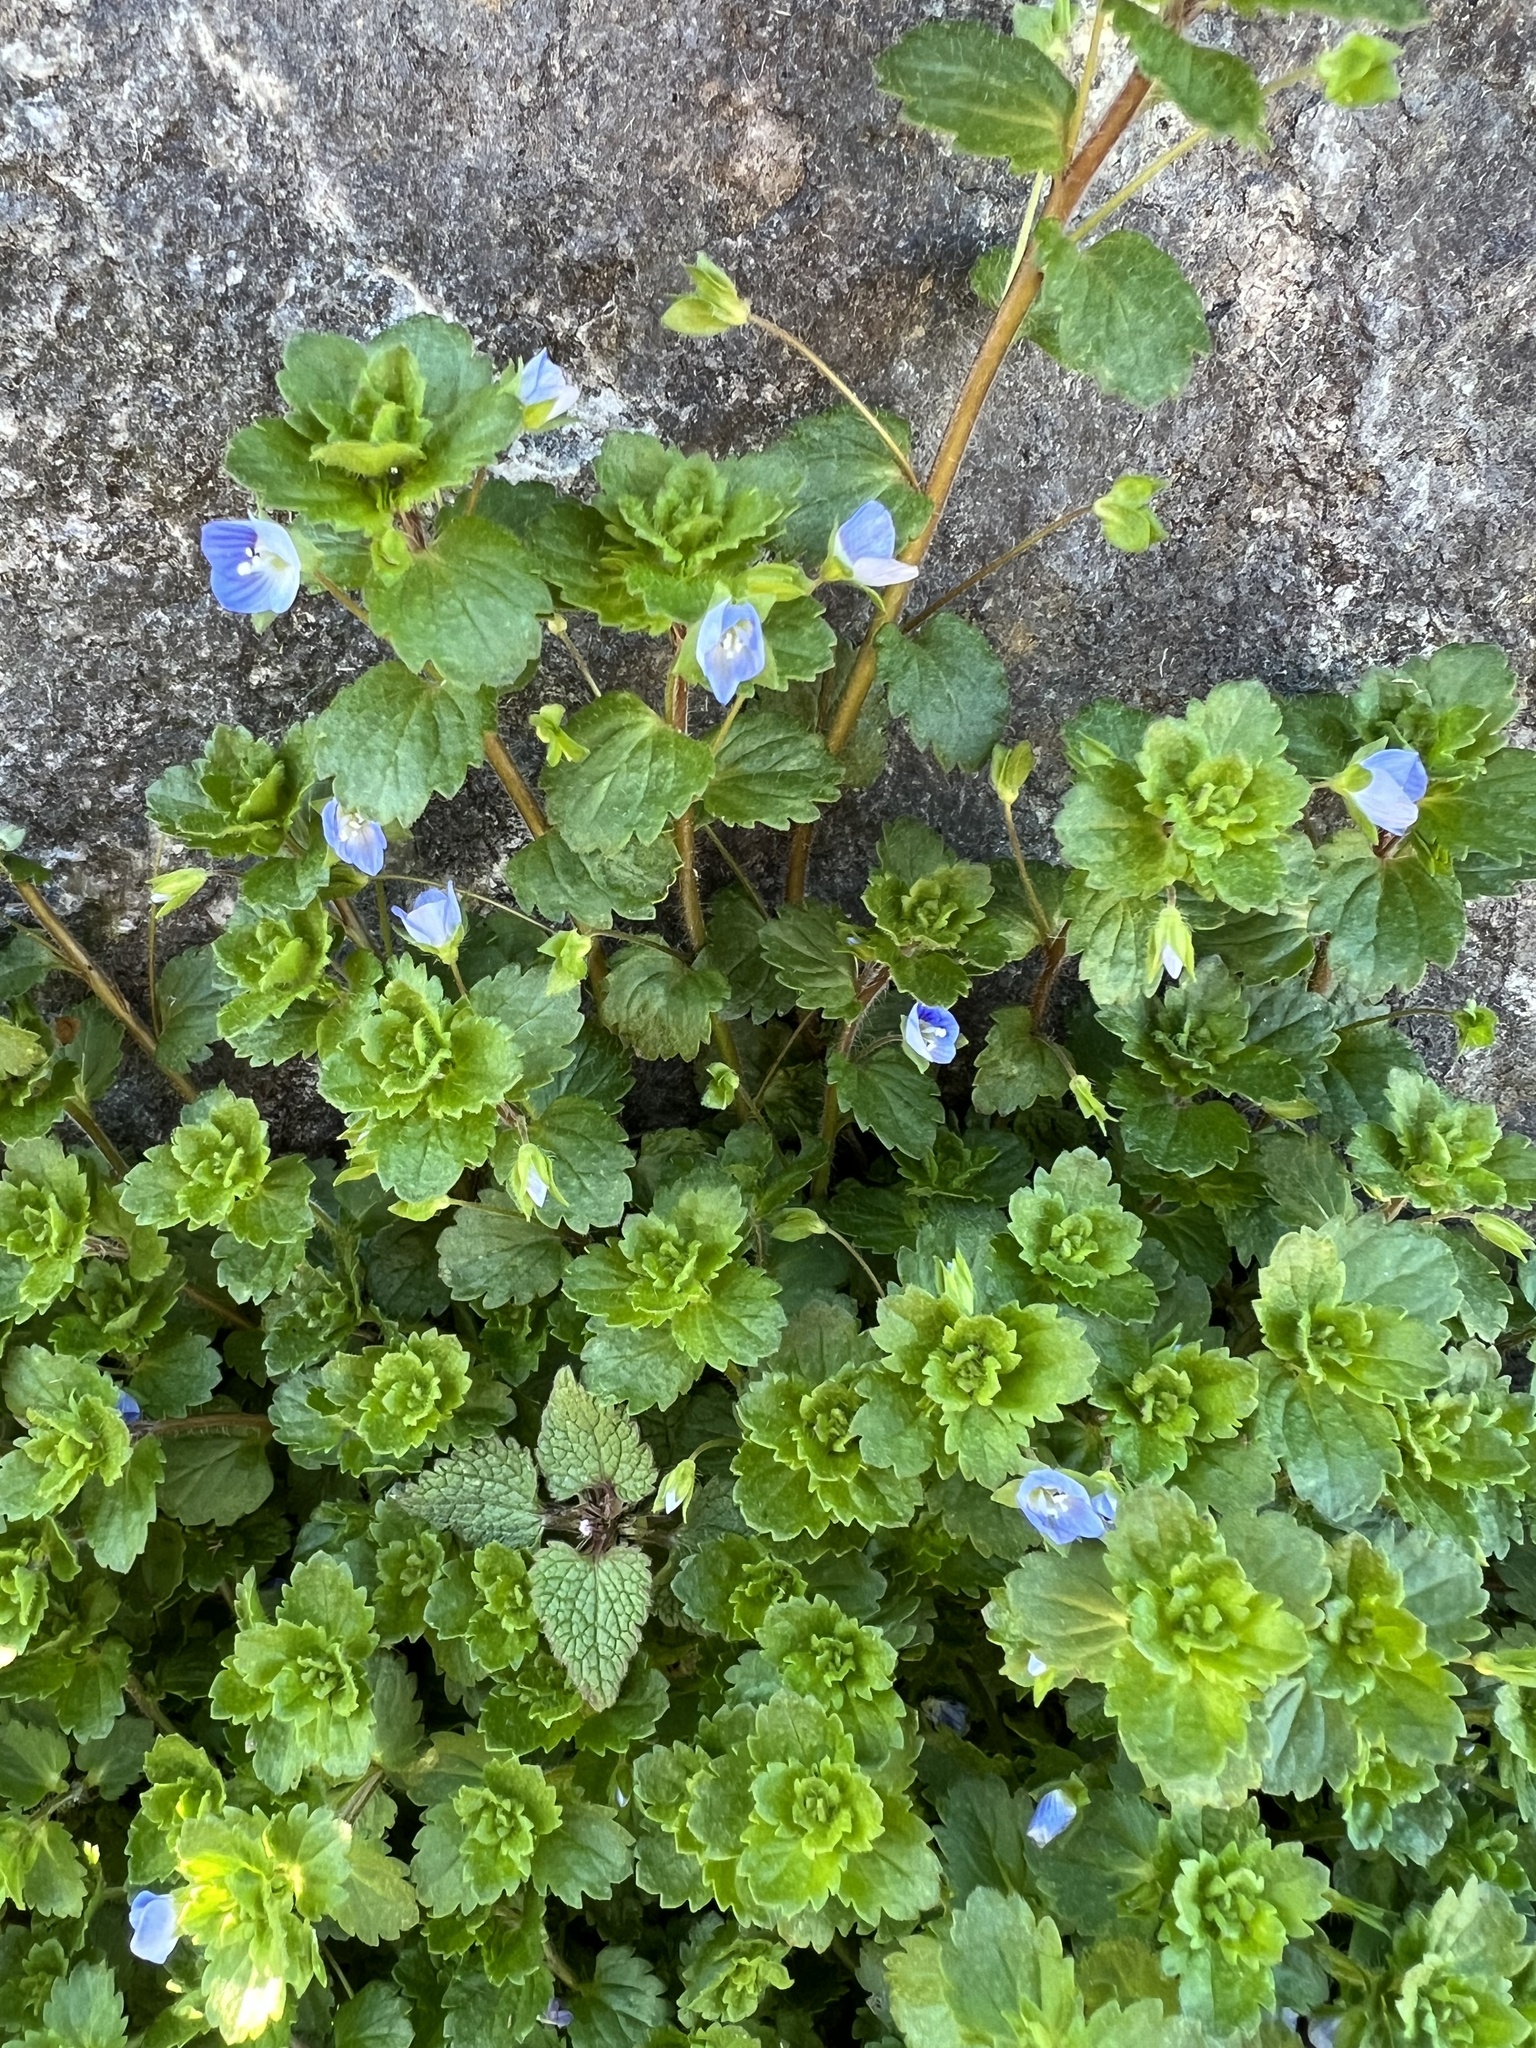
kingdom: Plantae
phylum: Tracheophyta
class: Magnoliopsida
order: Lamiales
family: Plantaginaceae
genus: Veronica
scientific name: Veronica persica
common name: Common field-speedwell
